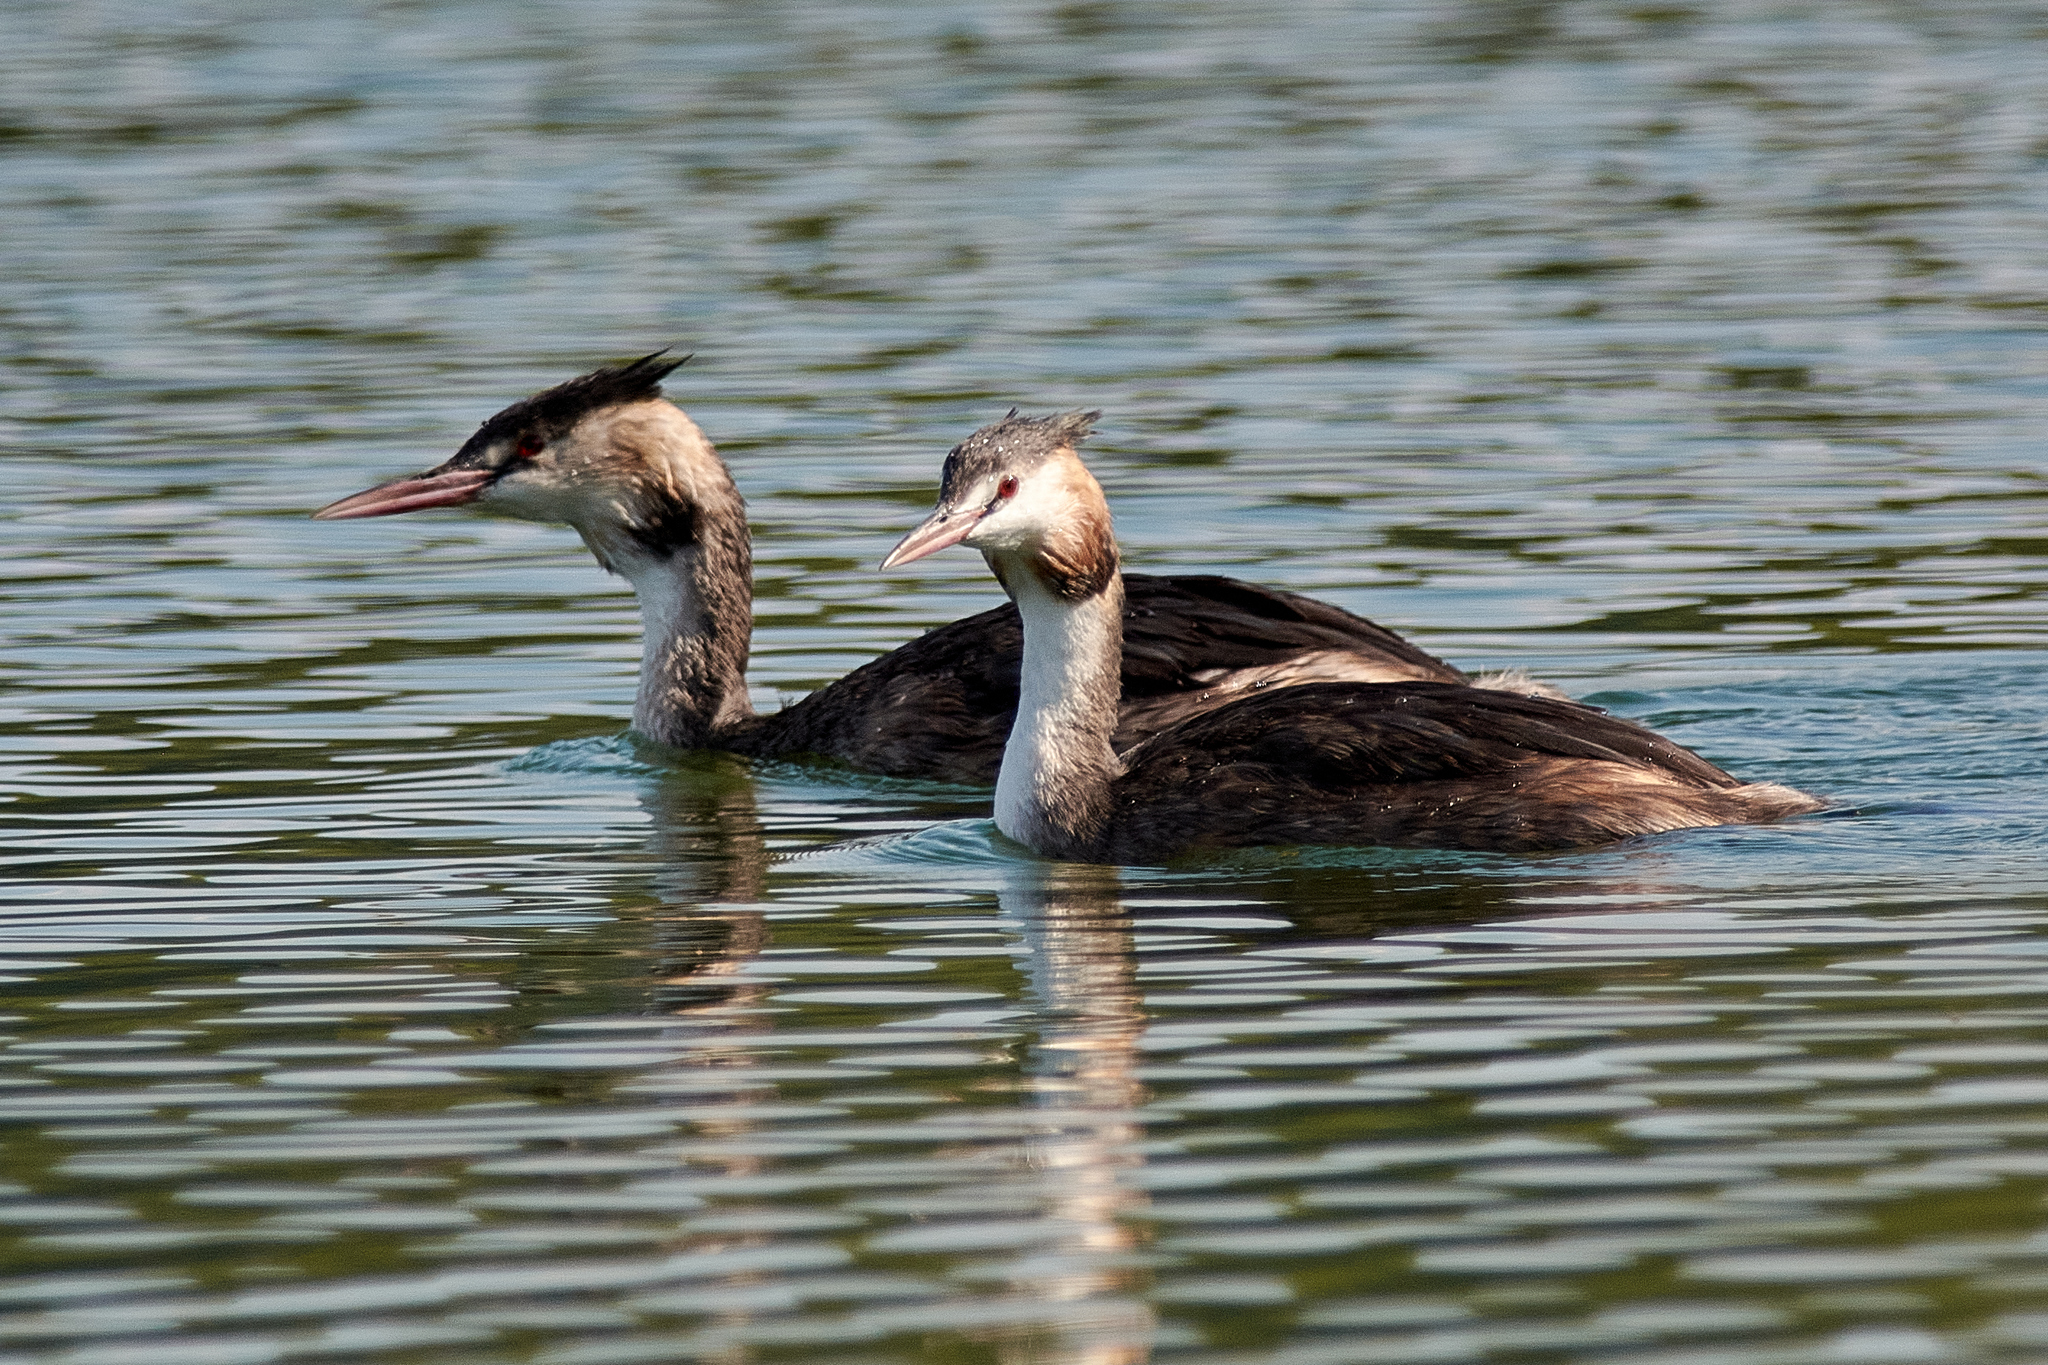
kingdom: Animalia
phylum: Chordata
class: Aves
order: Podicipediformes
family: Podicipedidae
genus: Podiceps
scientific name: Podiceps cristatus
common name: Great crested grebe
